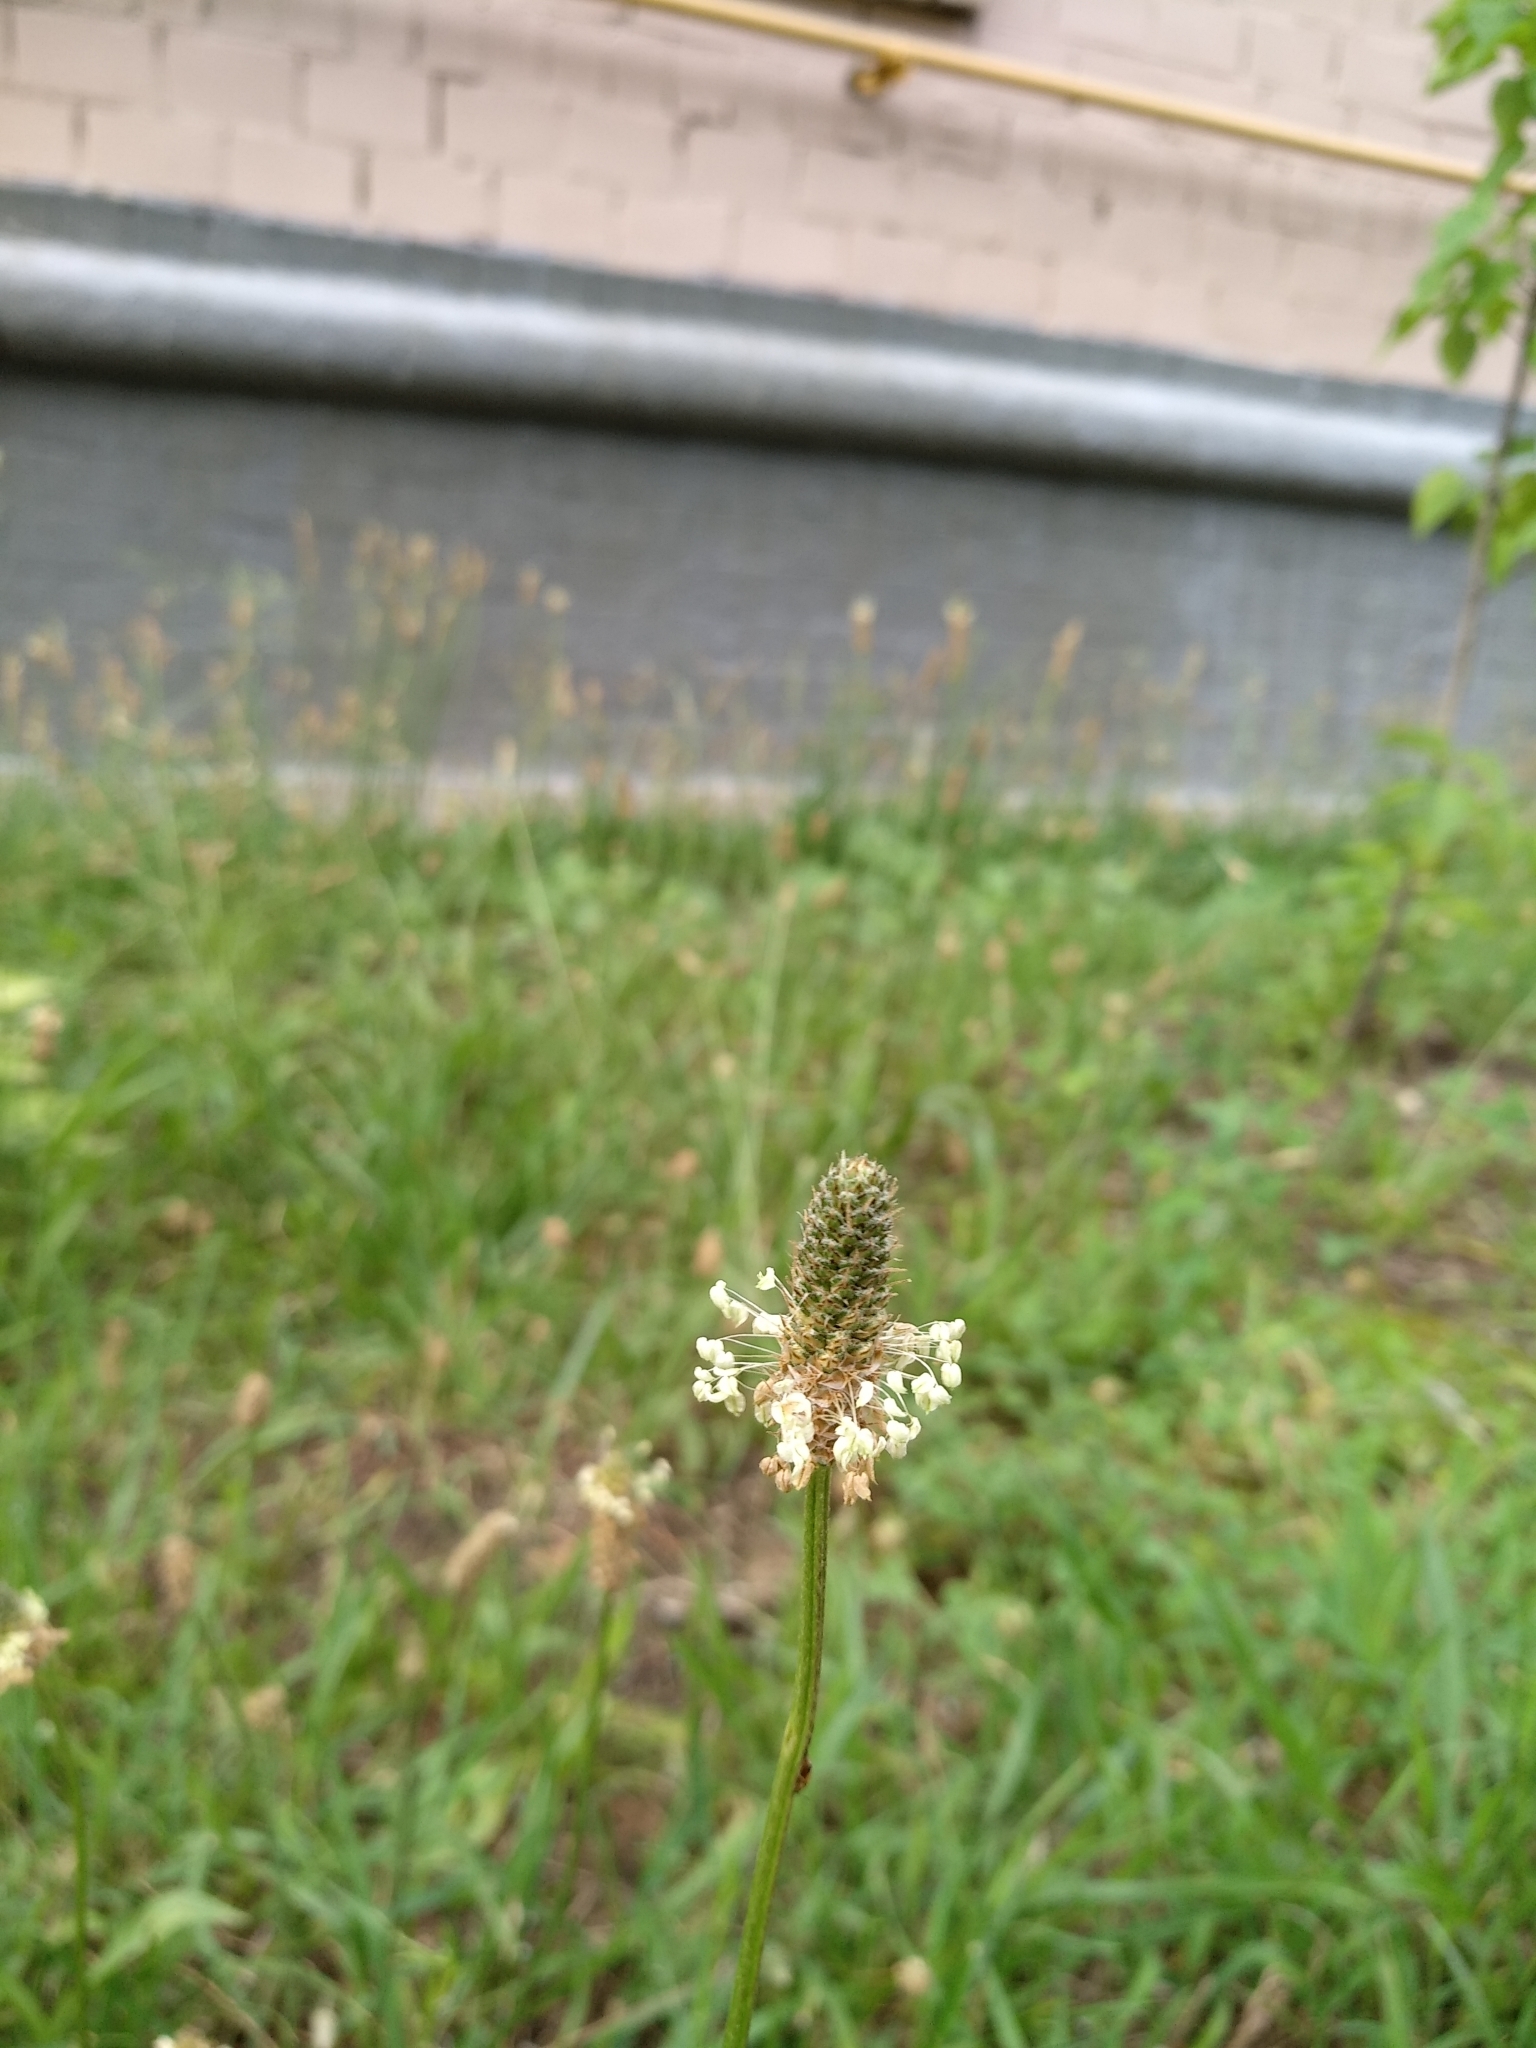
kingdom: Plantae
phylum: Tracheophyta
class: Magnoliopsida
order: Lamiales
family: Plantaginaceae
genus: Plantago
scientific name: Plantago lanceolata
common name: Ribwort plantain
